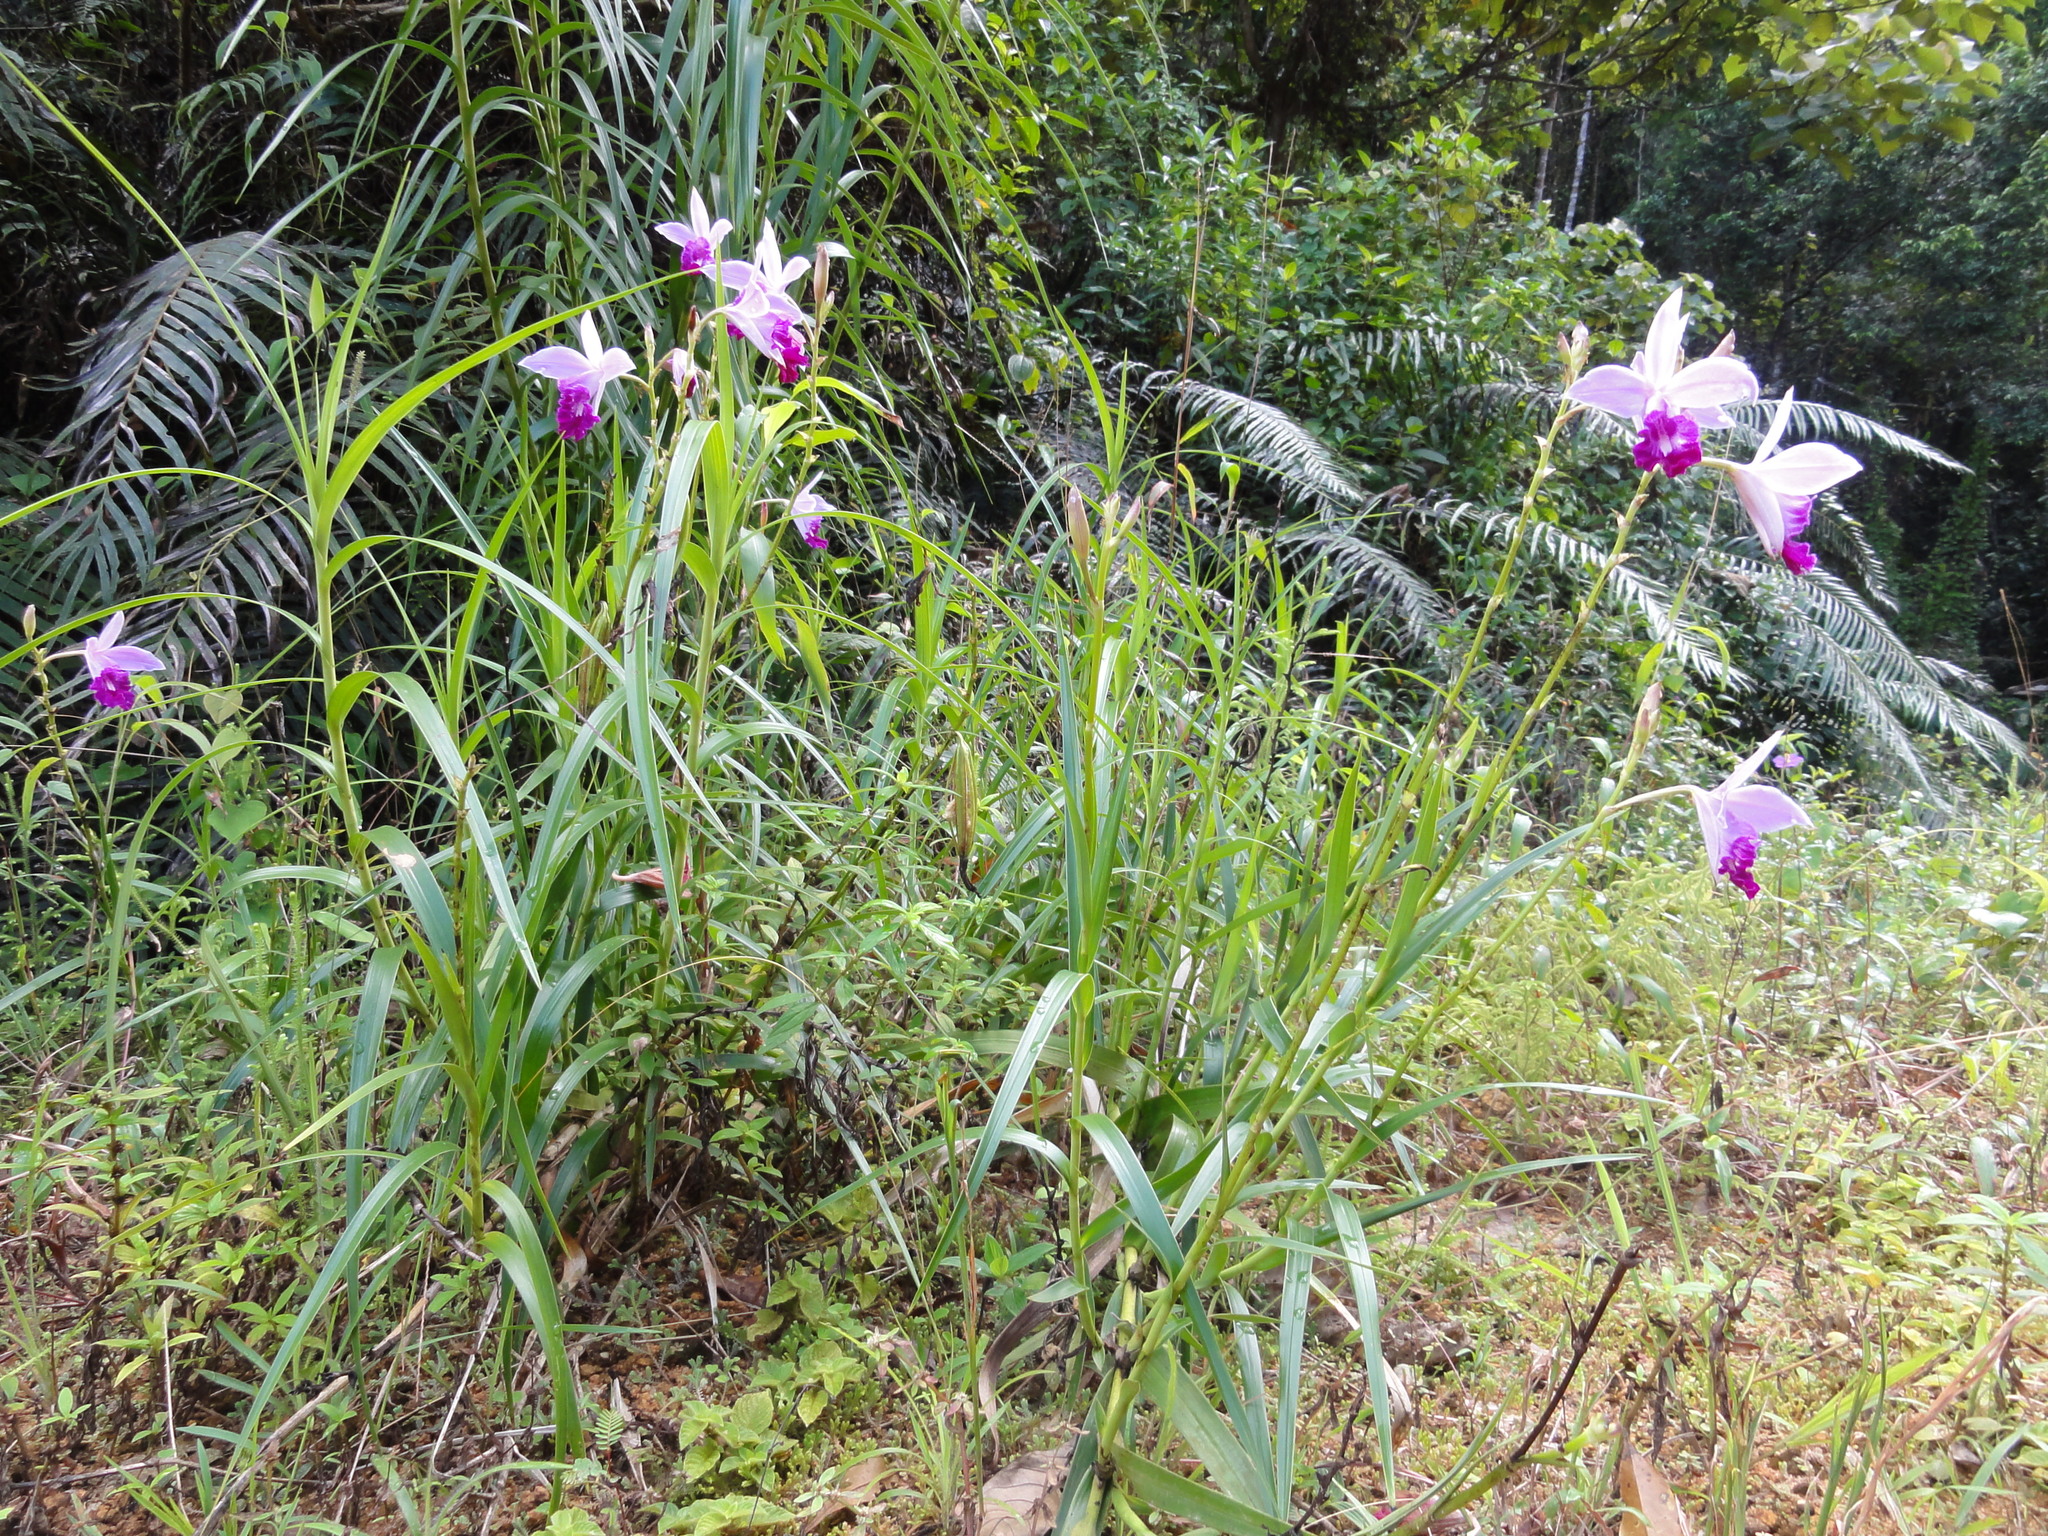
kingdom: Plantae
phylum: Tracheophyta
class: Liliopsida
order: Asparagales
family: Orchidaceae
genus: Arundina
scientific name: Arundina graminifolia
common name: Bamboo orchid
